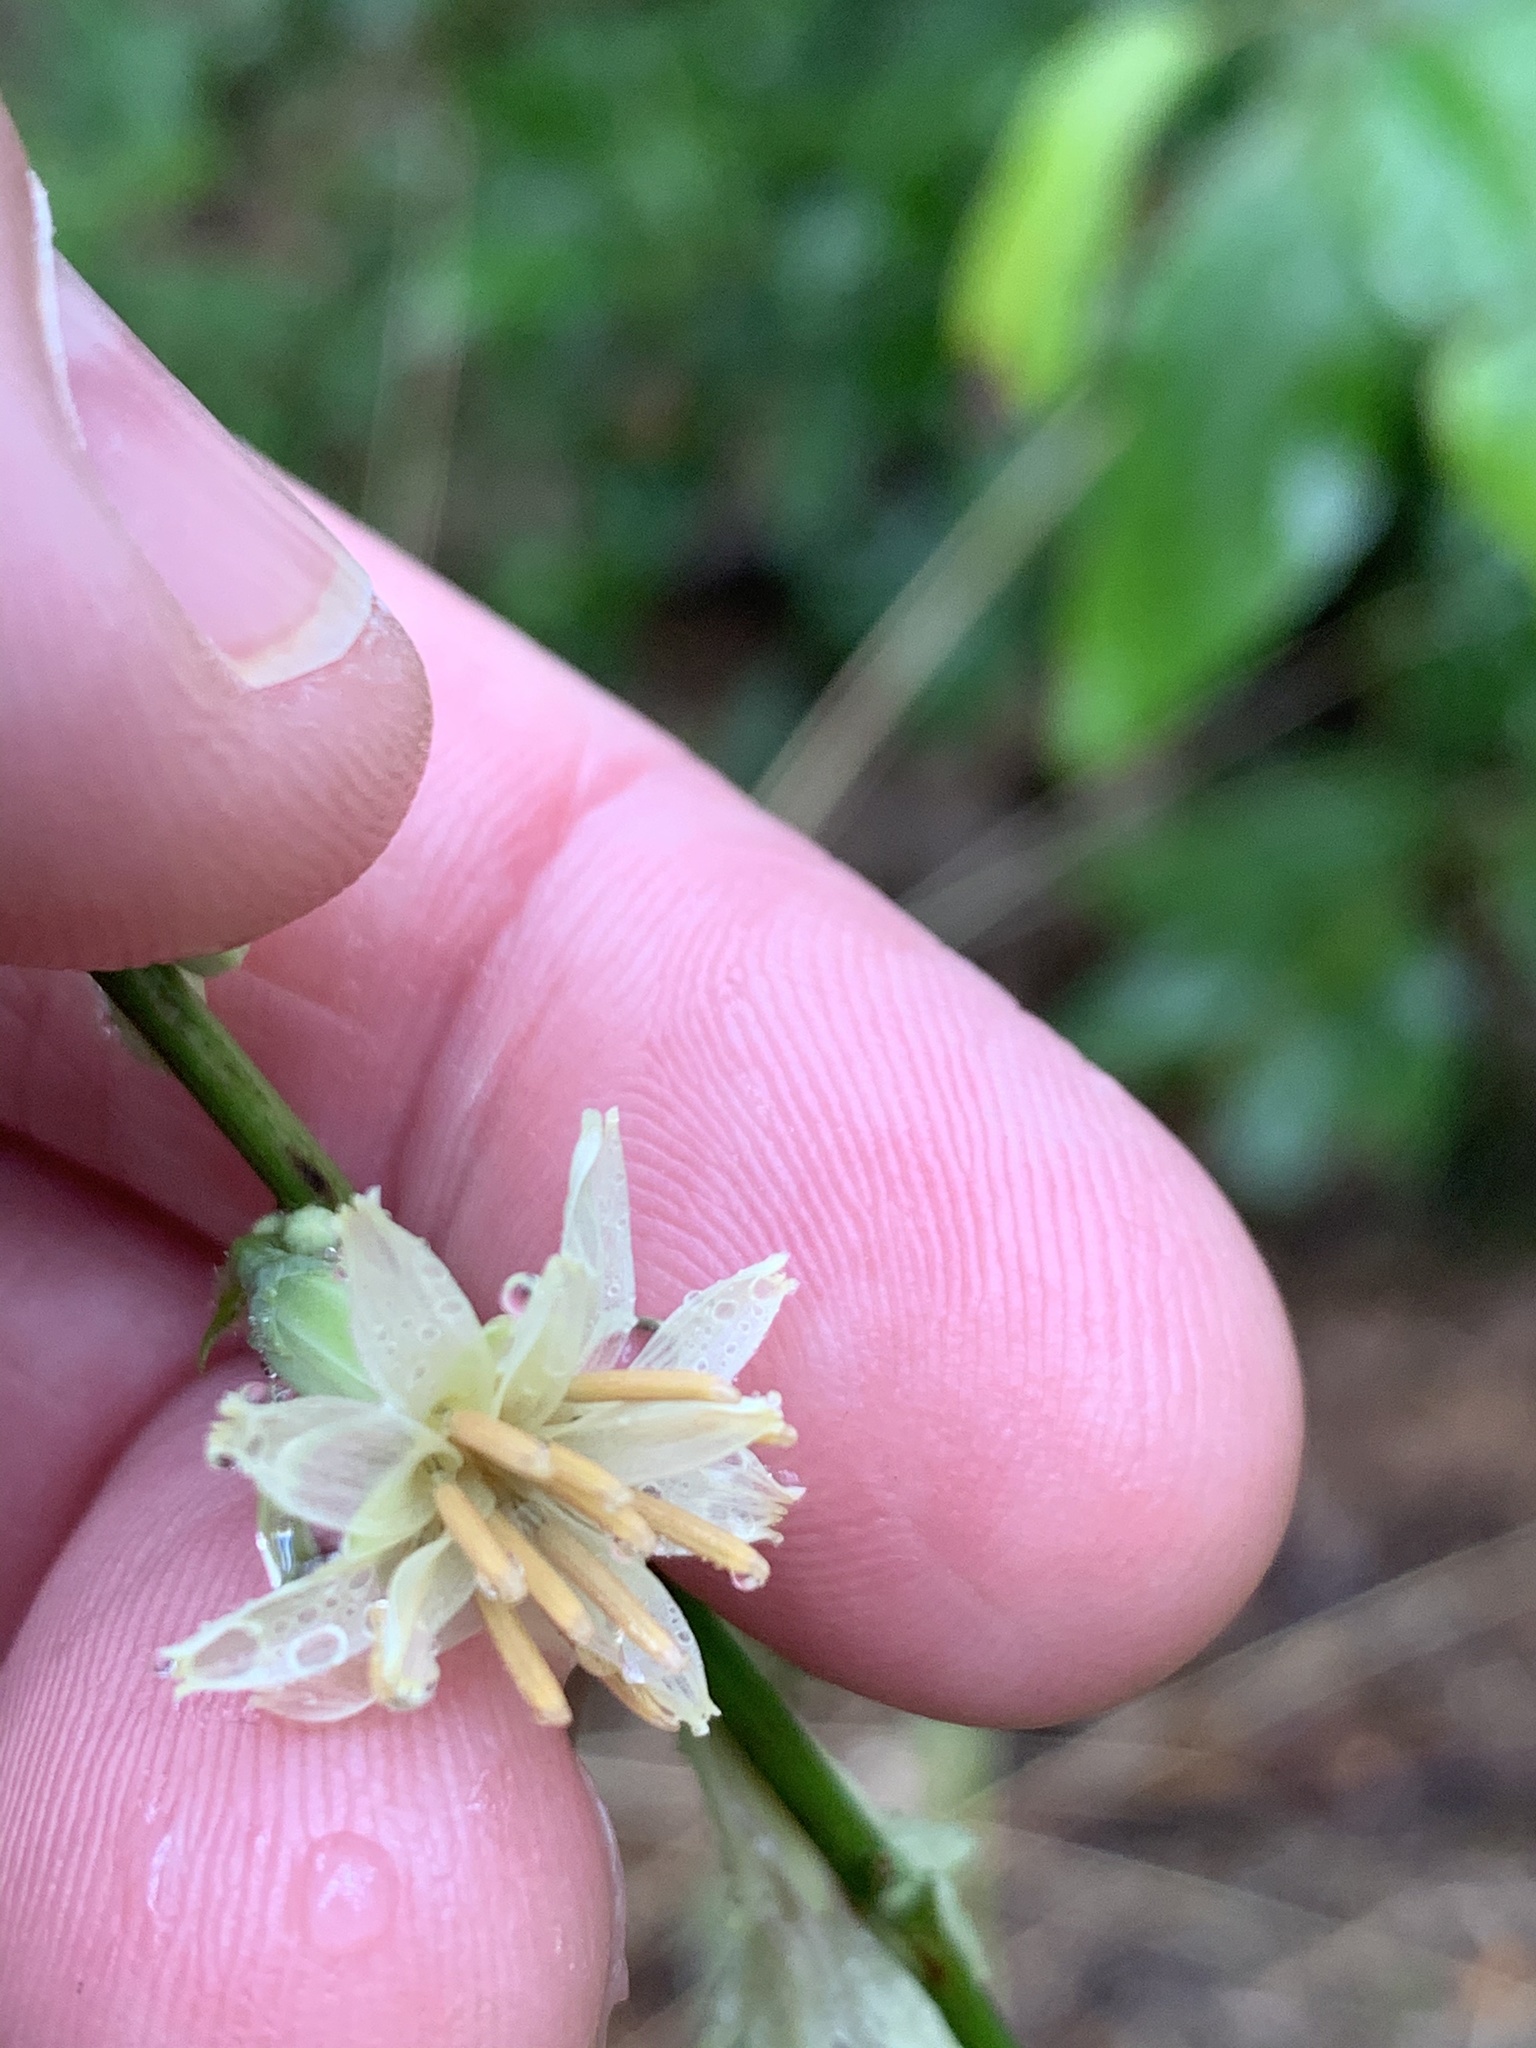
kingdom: Plantae
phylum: Tracheophyta
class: Magnoliopsida
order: Asterales
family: Asteraceae
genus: Nabalus
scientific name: Nabalus trifoliolatus
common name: Gall-of-the-earth
